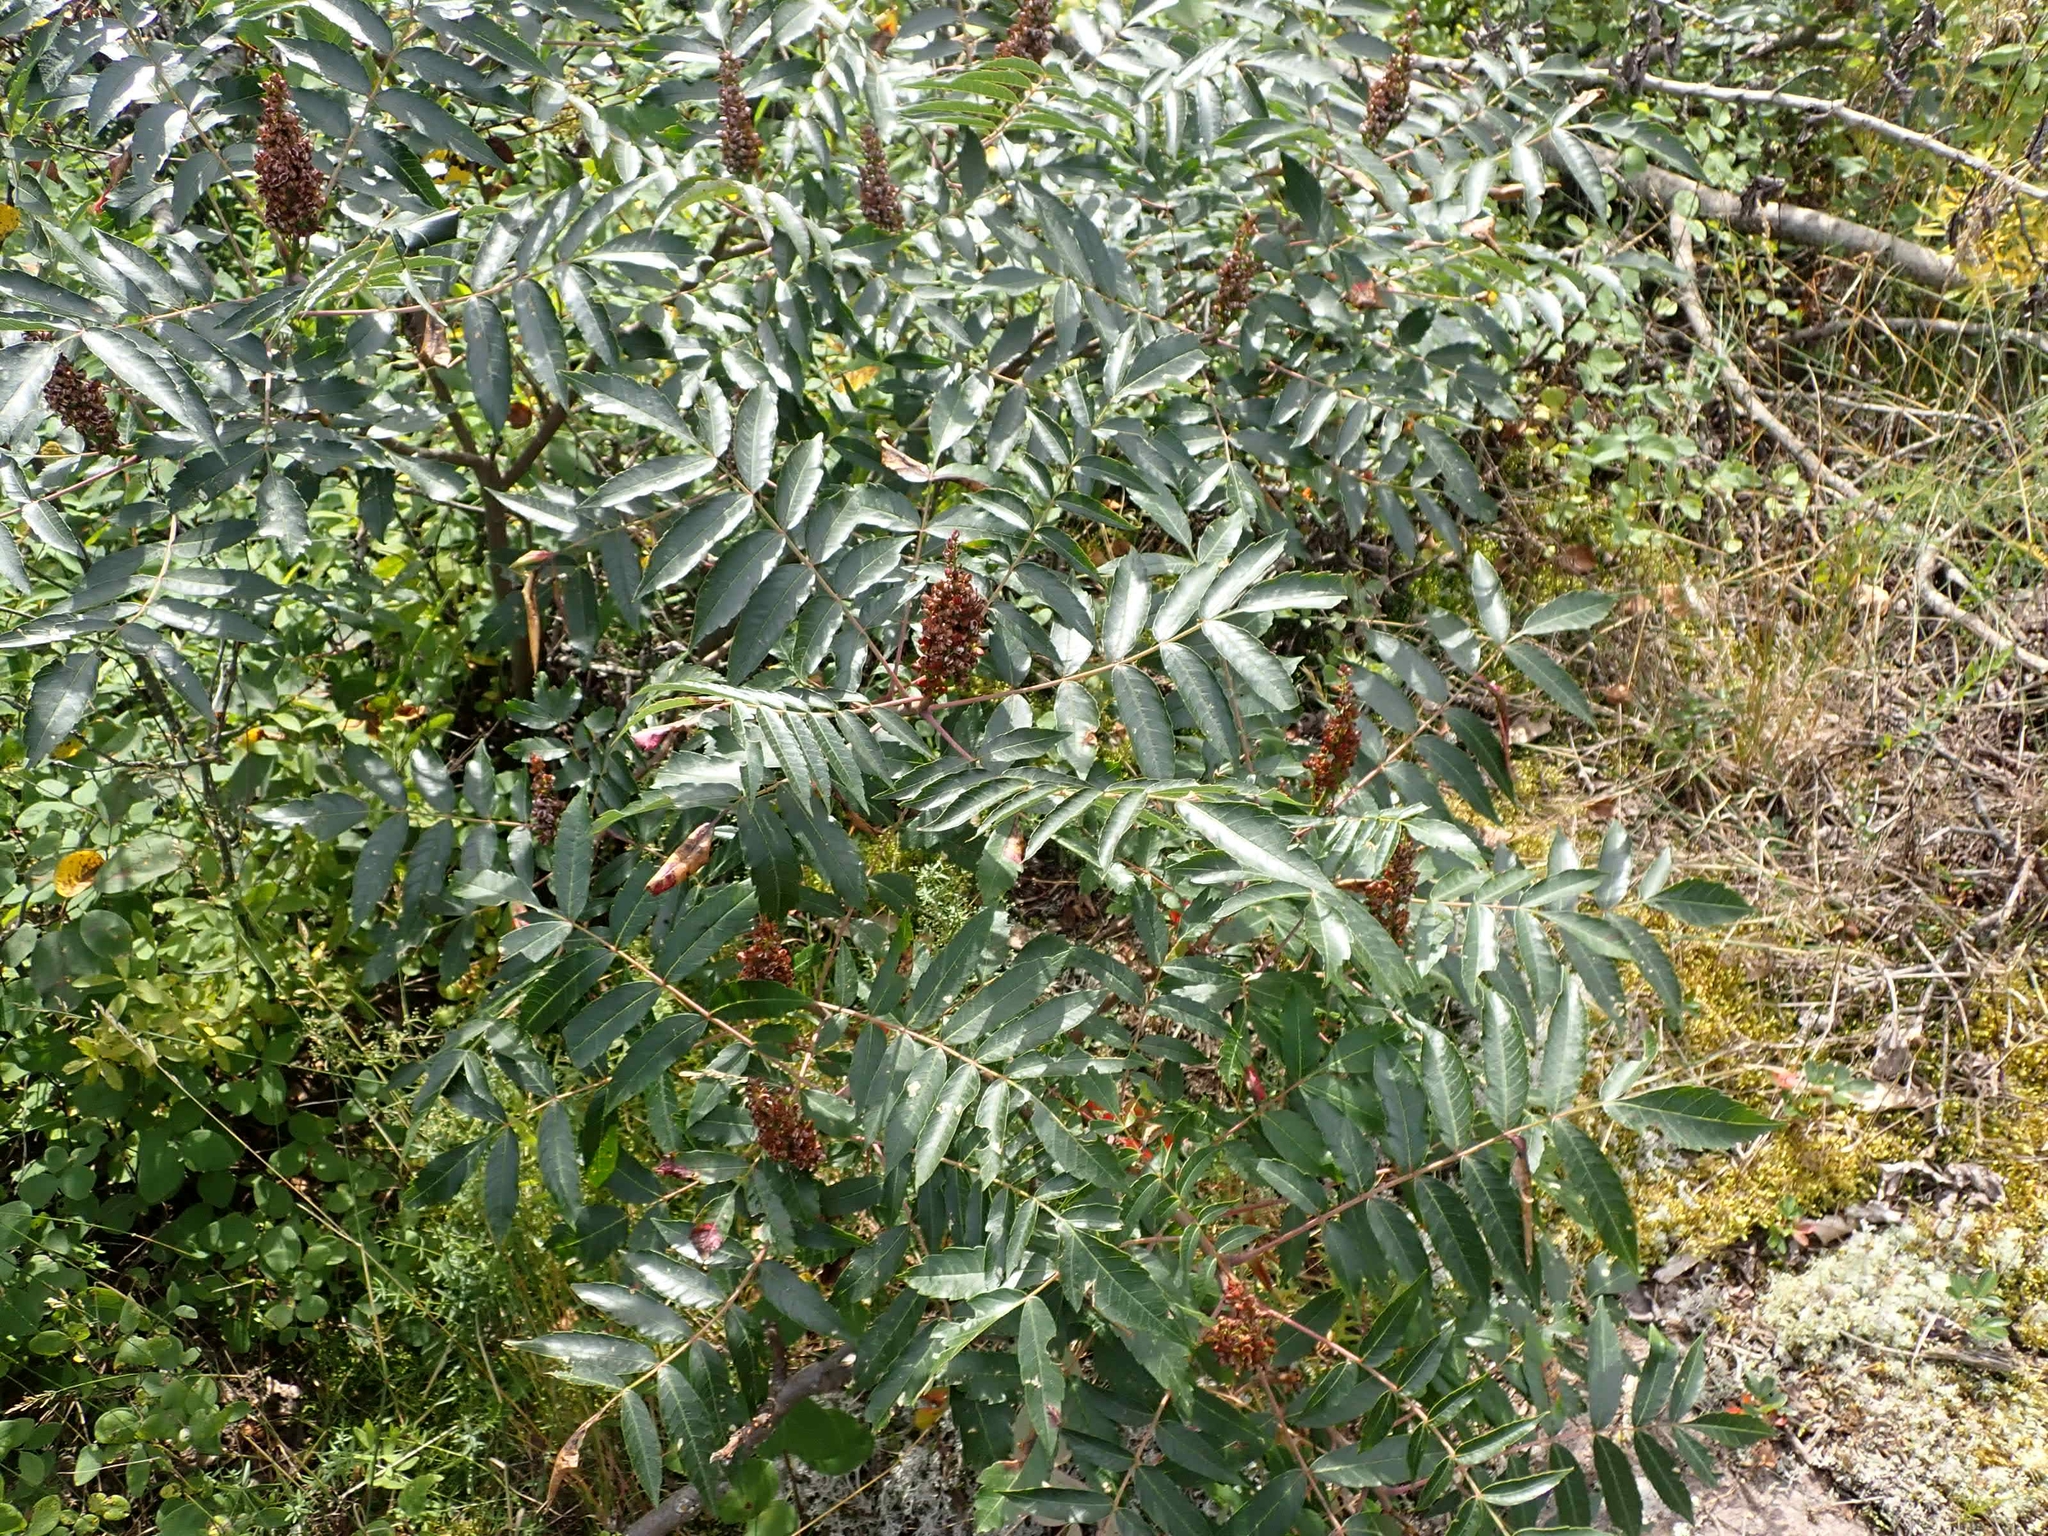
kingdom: Plantae
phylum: Tracheophyta
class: Magnoliopsida
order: Sapindales
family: Anacardiaceae
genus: Rhus
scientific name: Rhus glabra
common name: Scarlet sumac
